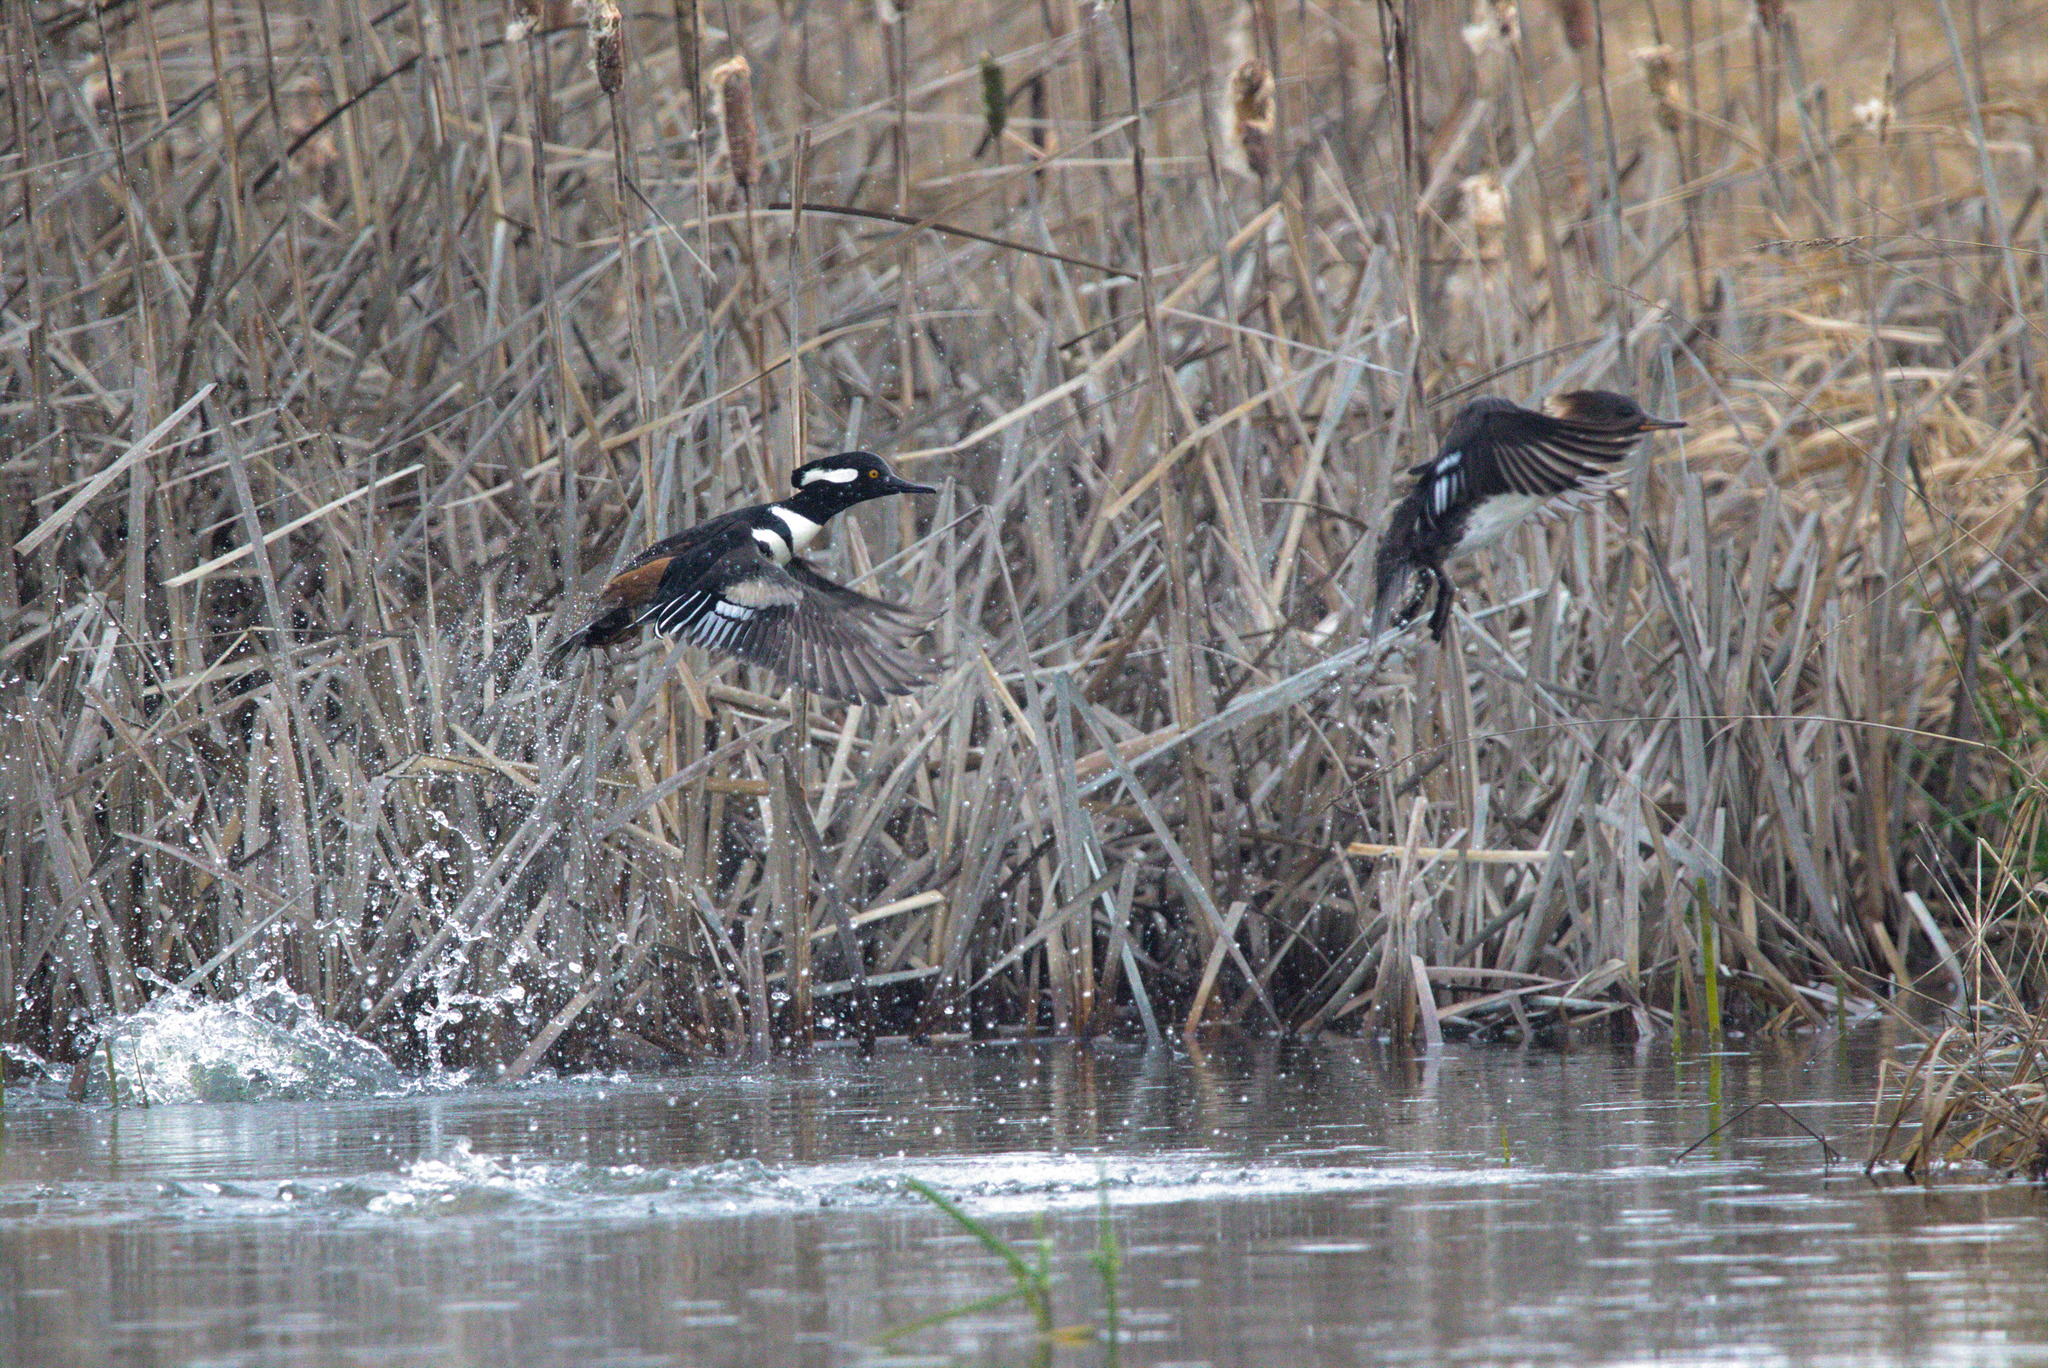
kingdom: Animalia
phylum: Chordata
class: Aves
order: Anseriformes
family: Anatidae
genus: Lophodytes
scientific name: Lophodytes cucullatus
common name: Hooded merganser
